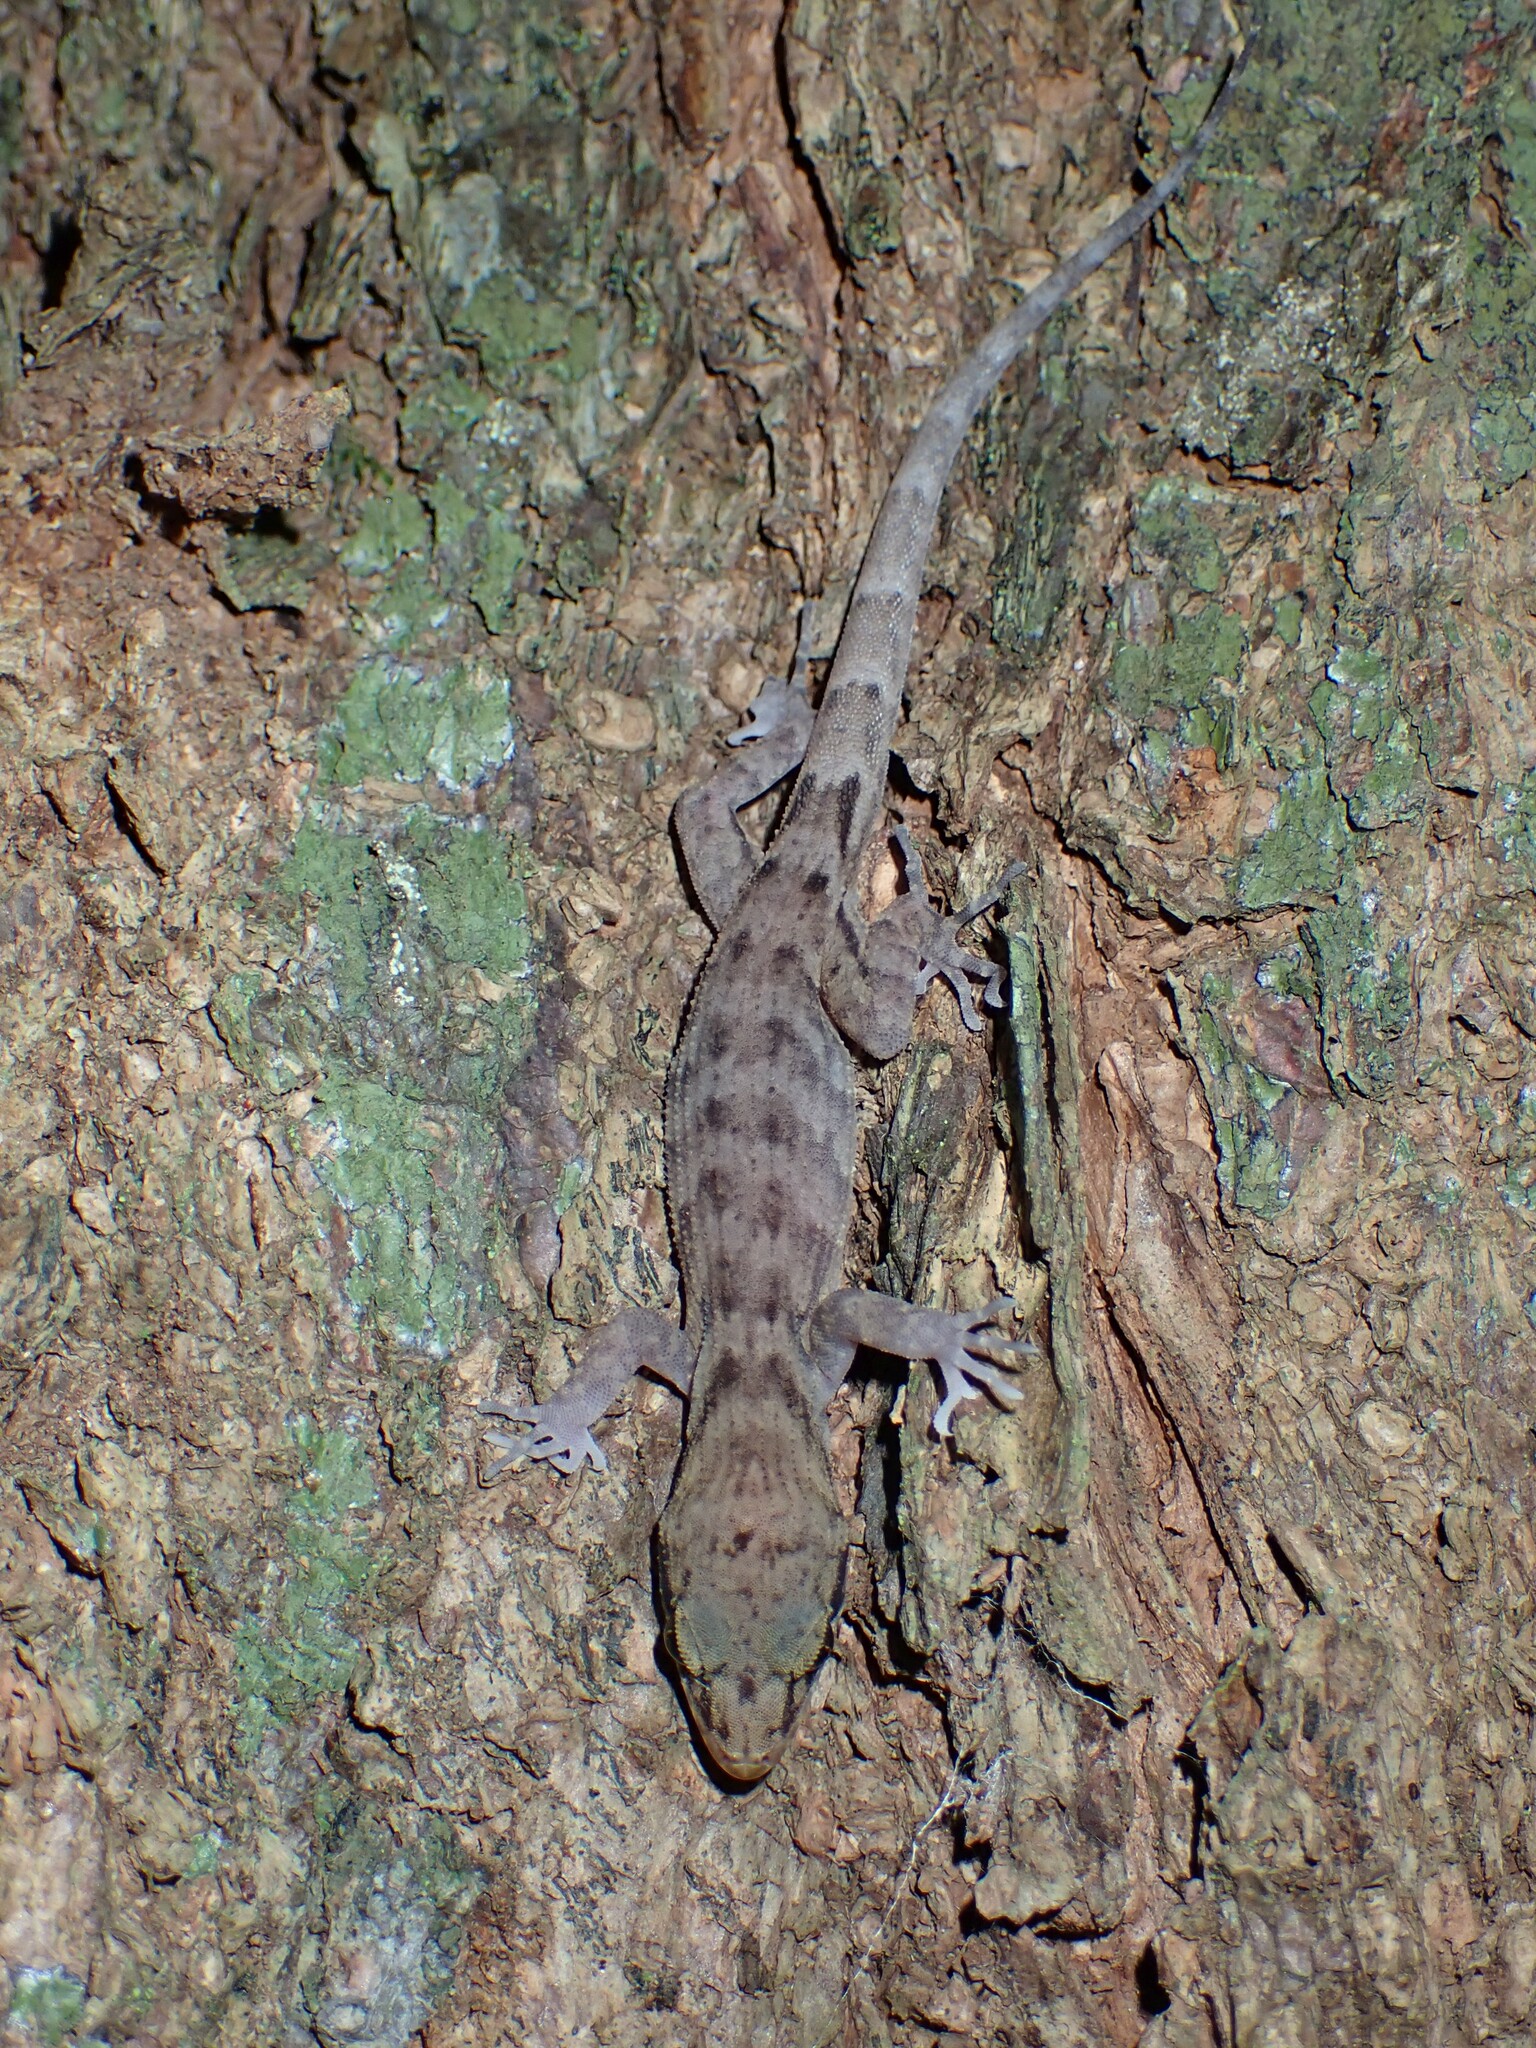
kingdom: Animalia
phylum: Chordata
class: Squamata
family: Gekkonidae
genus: Nactus
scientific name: Nactus pelagicus
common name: Pelagic gecko
